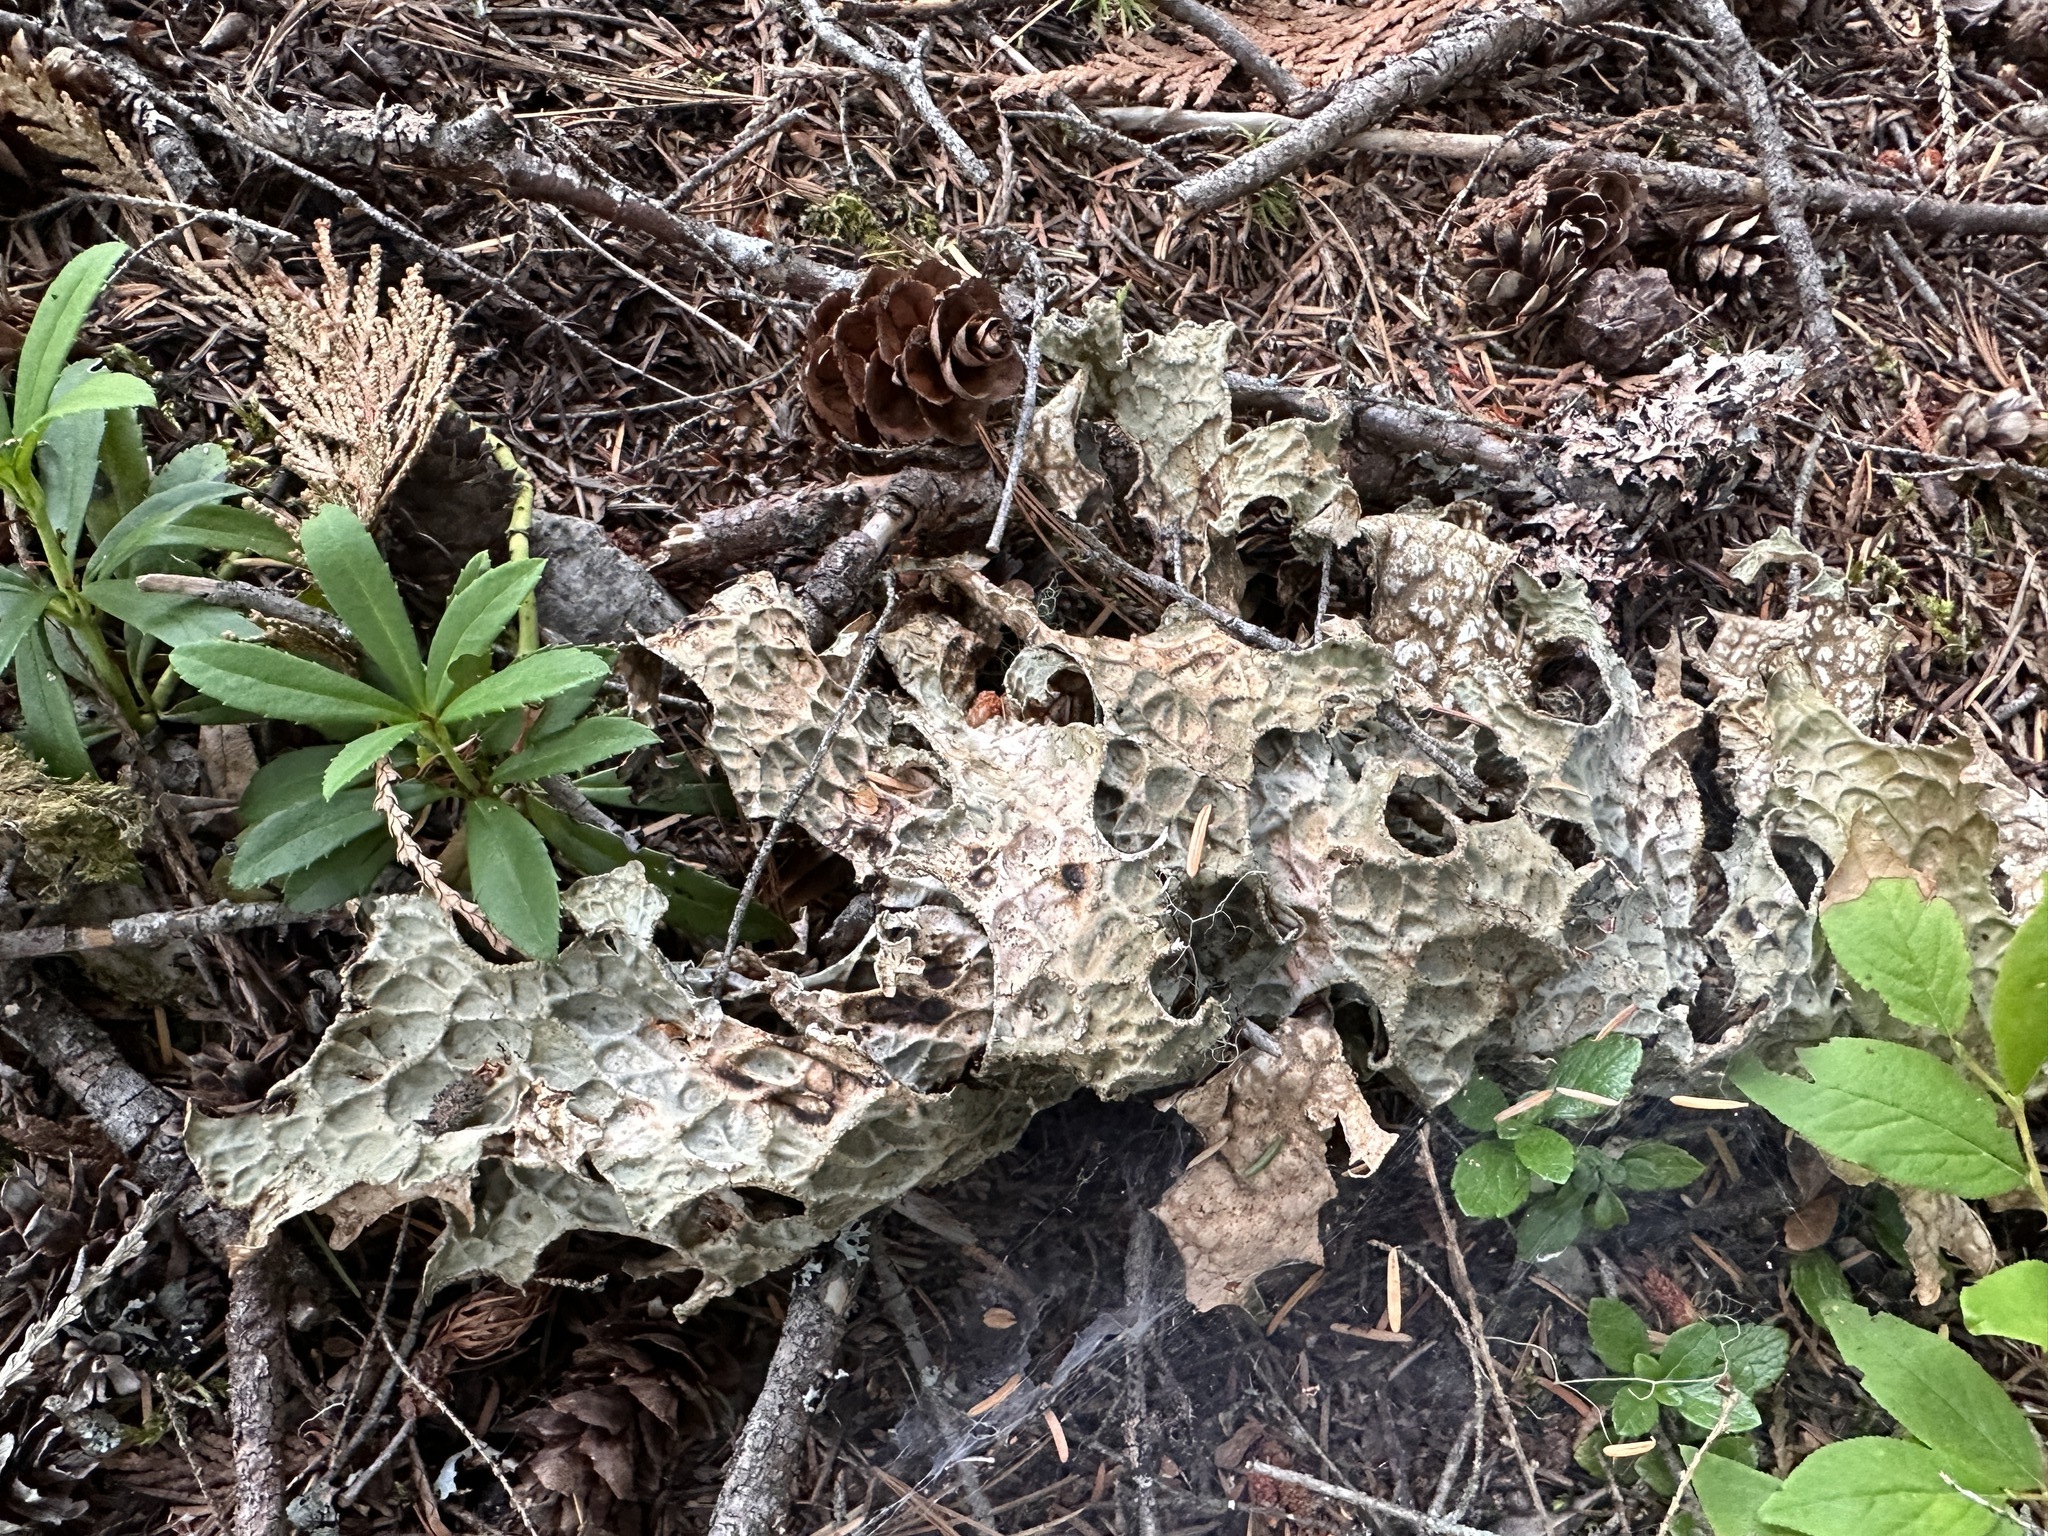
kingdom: Fungi
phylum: Ascomycota
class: Lecanoromycetes
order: Peltigerales
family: Lobariaceae
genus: Lobaria
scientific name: Lobaria pulmonaria
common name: Lungwort
